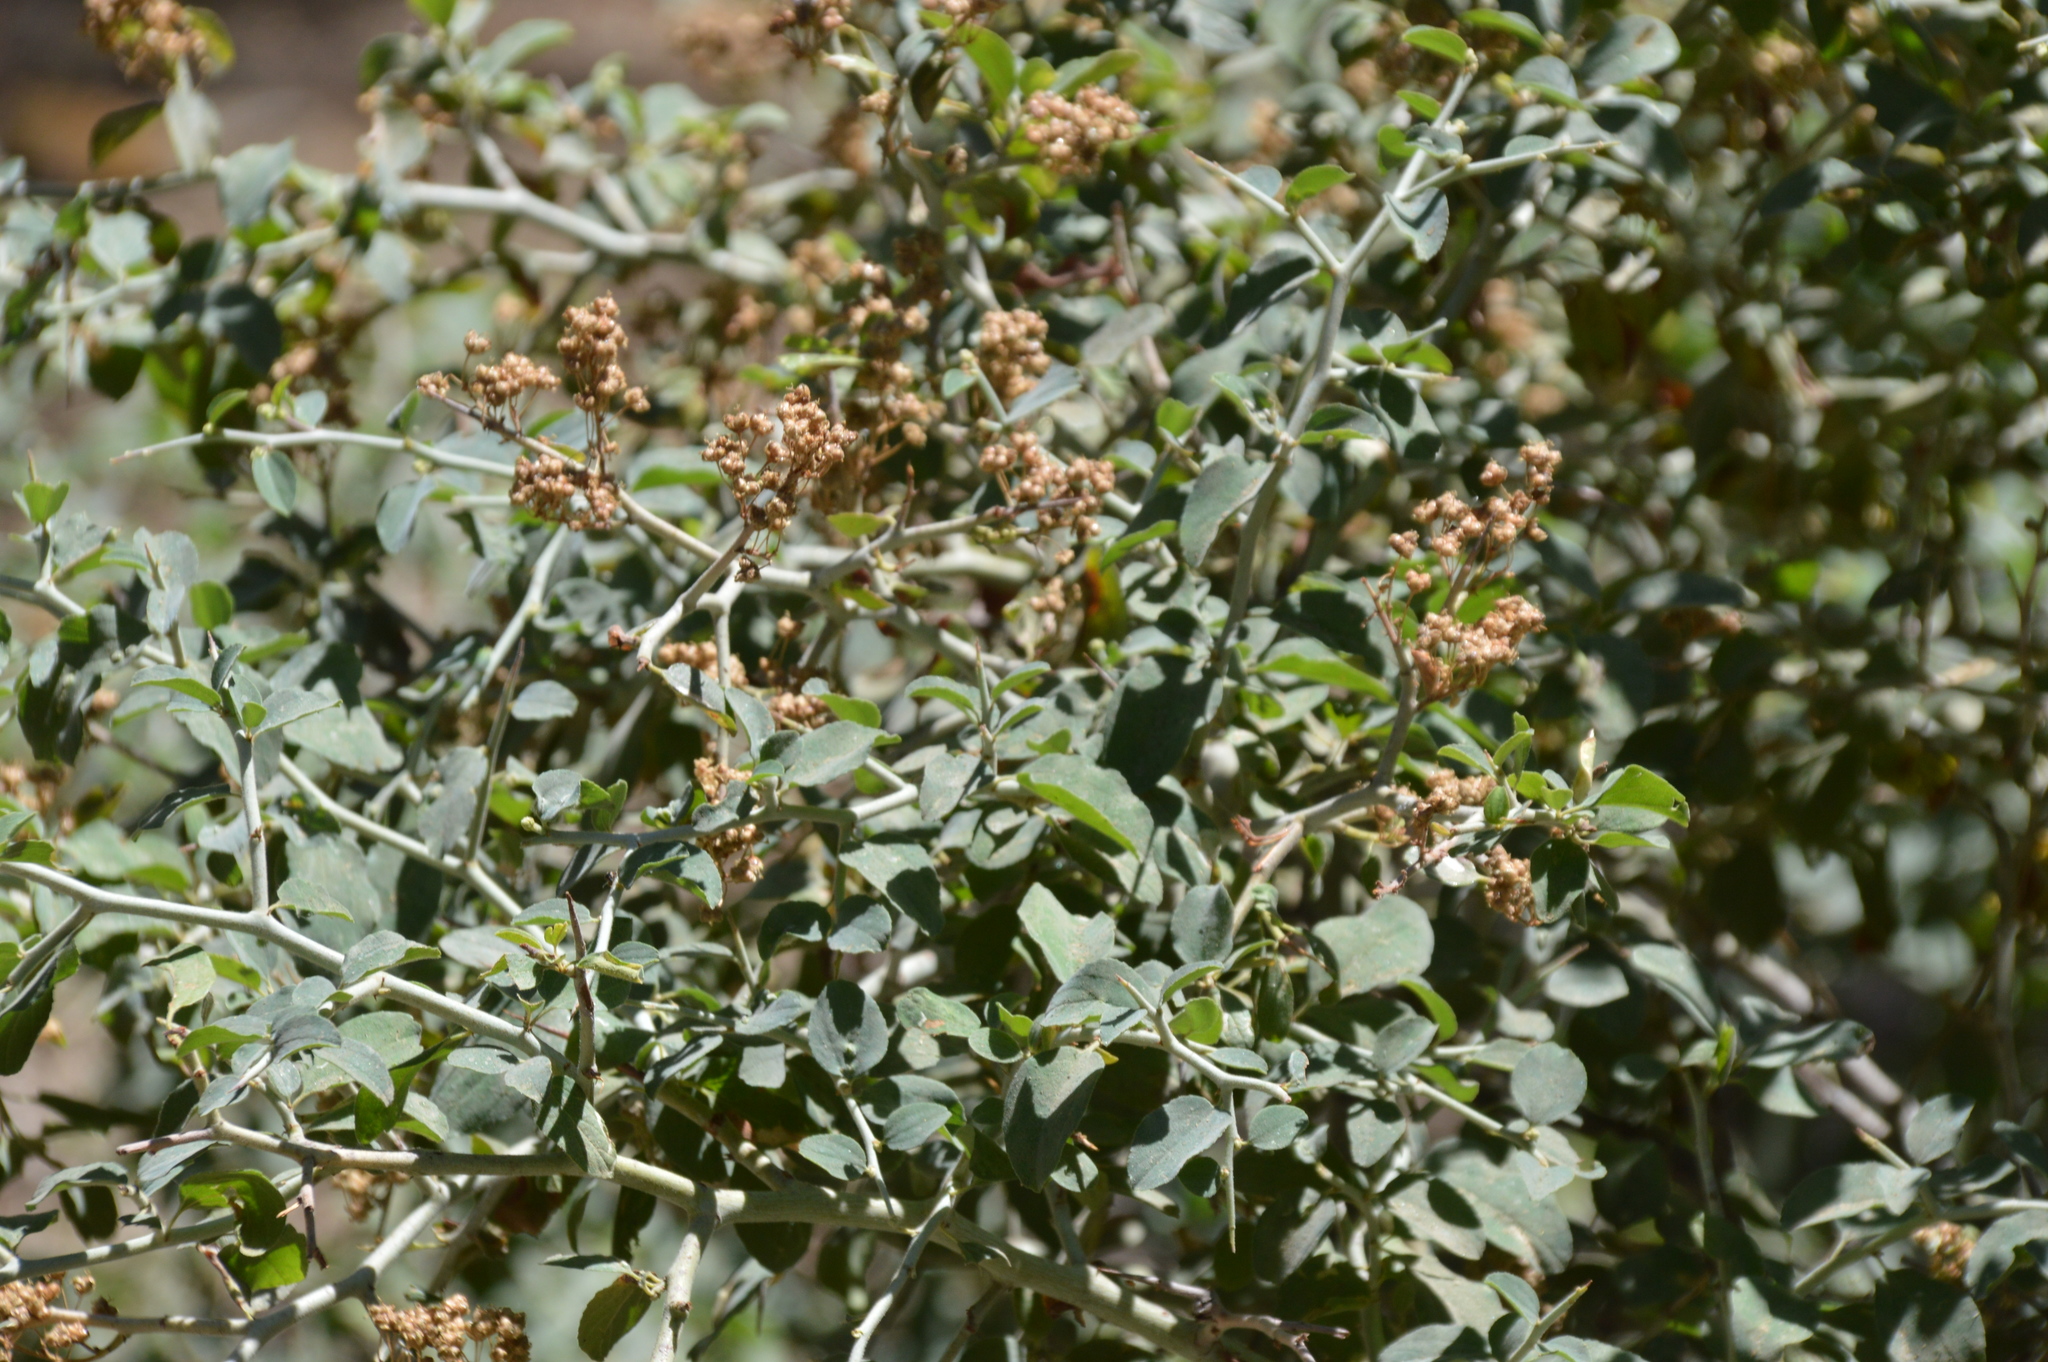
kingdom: Plantae
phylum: Tracheophyta
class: Magnoliopsida
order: Rosales
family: Rhamnaceae
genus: Ceanothus
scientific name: Ceanothus cordulatus
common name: Mountain whitethorn
